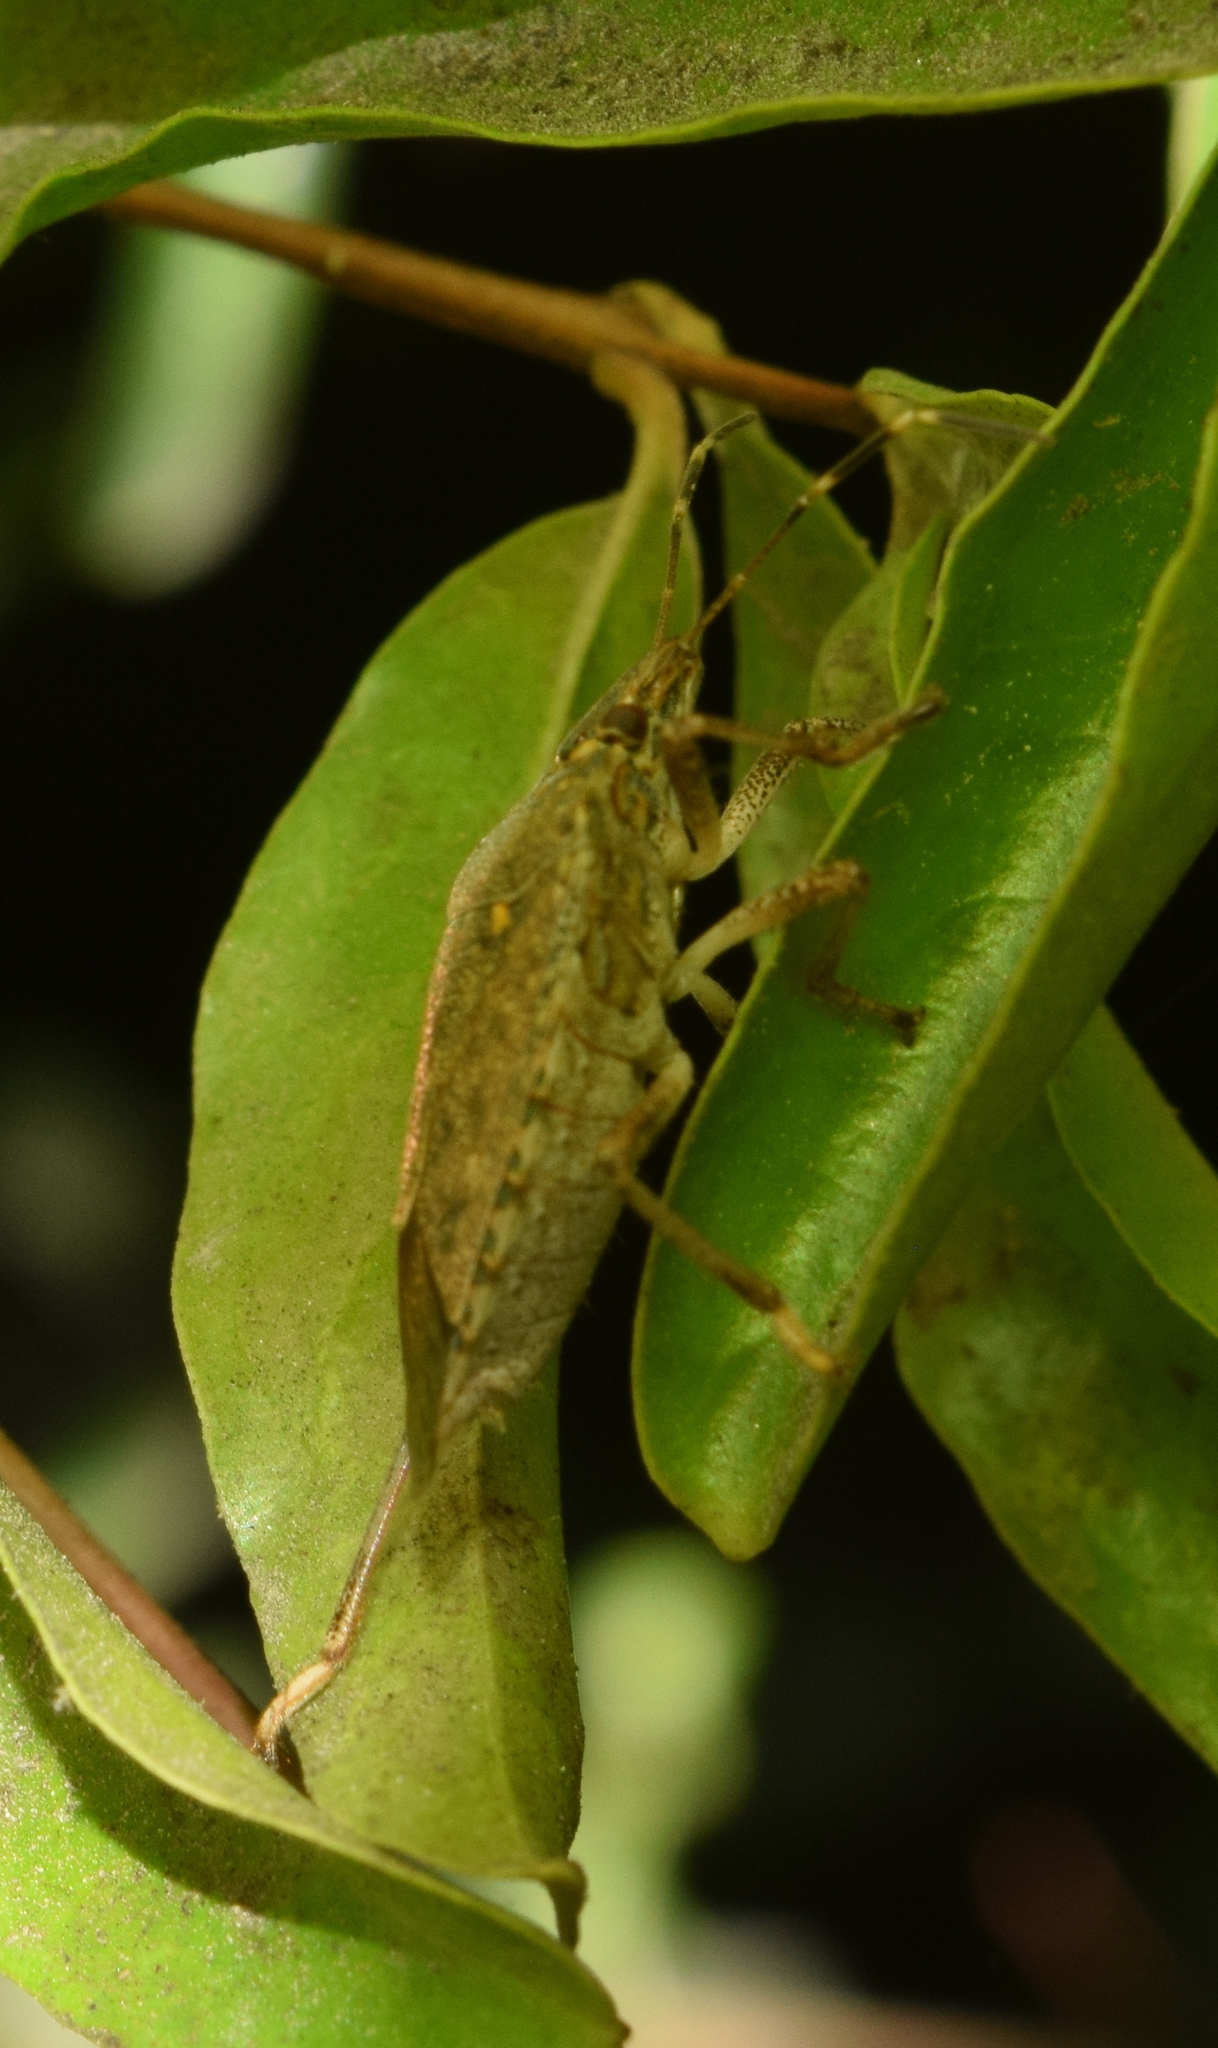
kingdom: Animalia
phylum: Arthropoda
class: Insecta
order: Hemiptera
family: Pentatomidae
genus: Halyomorpha
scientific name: Halyomorpha halys
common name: Brown marmorated stink bug
